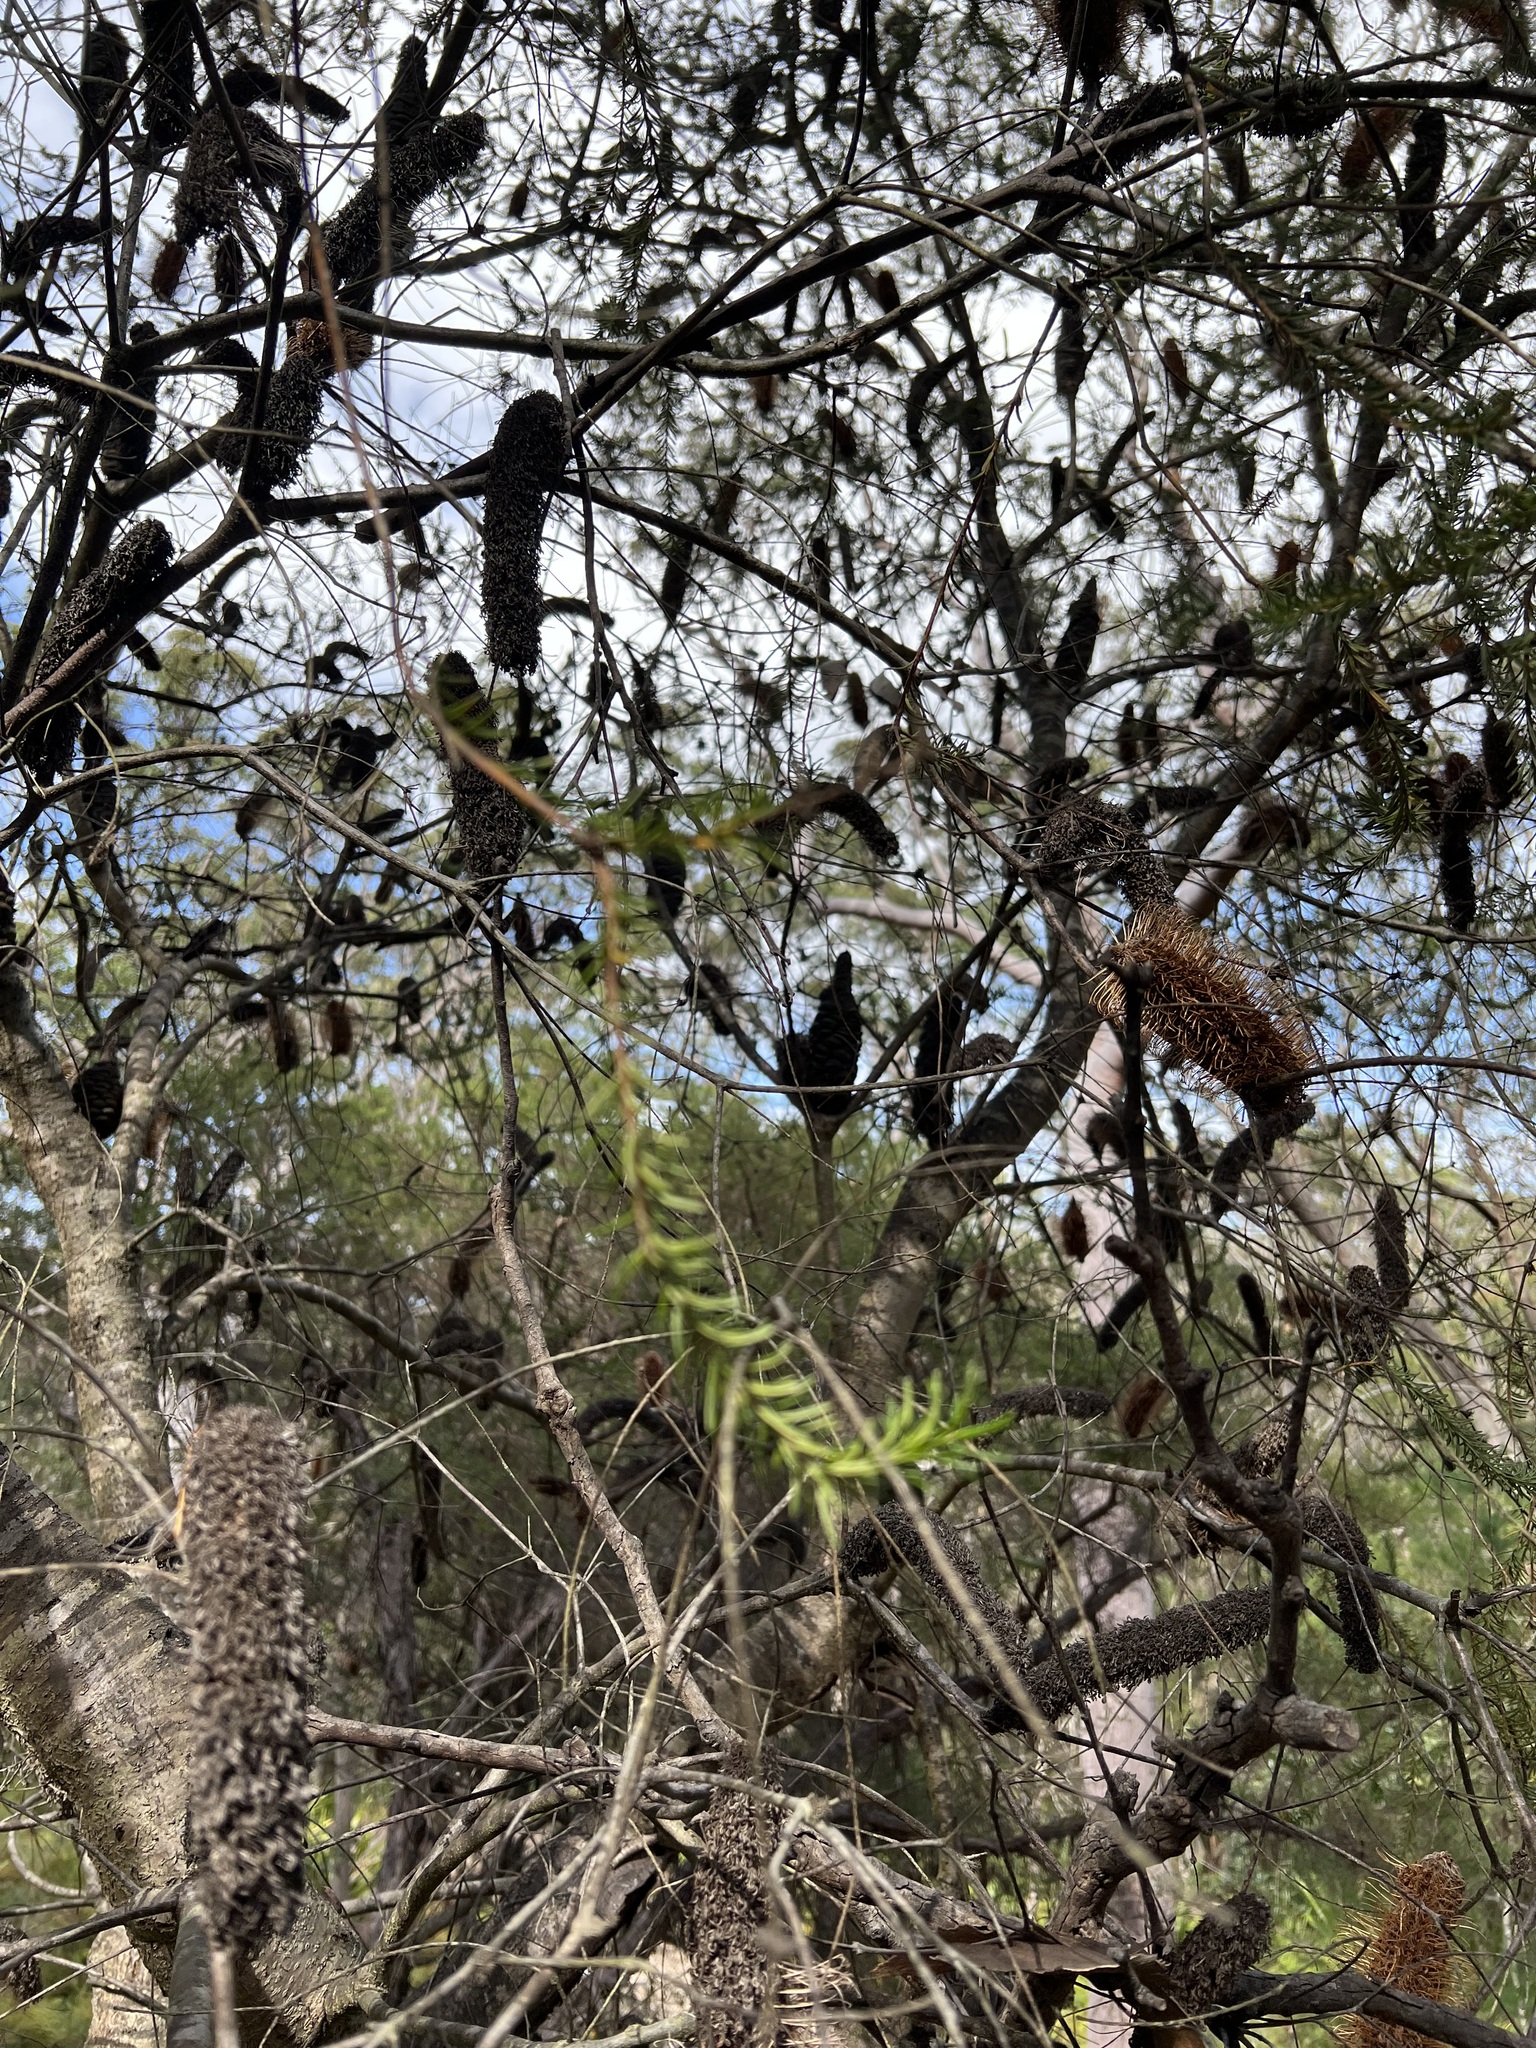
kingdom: Plantae
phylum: Tracheophyta
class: Magnoliopsida
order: Proteales
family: Proteaceae
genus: Banksia
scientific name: Banksia ericifolia
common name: Heath-leaf banksia
